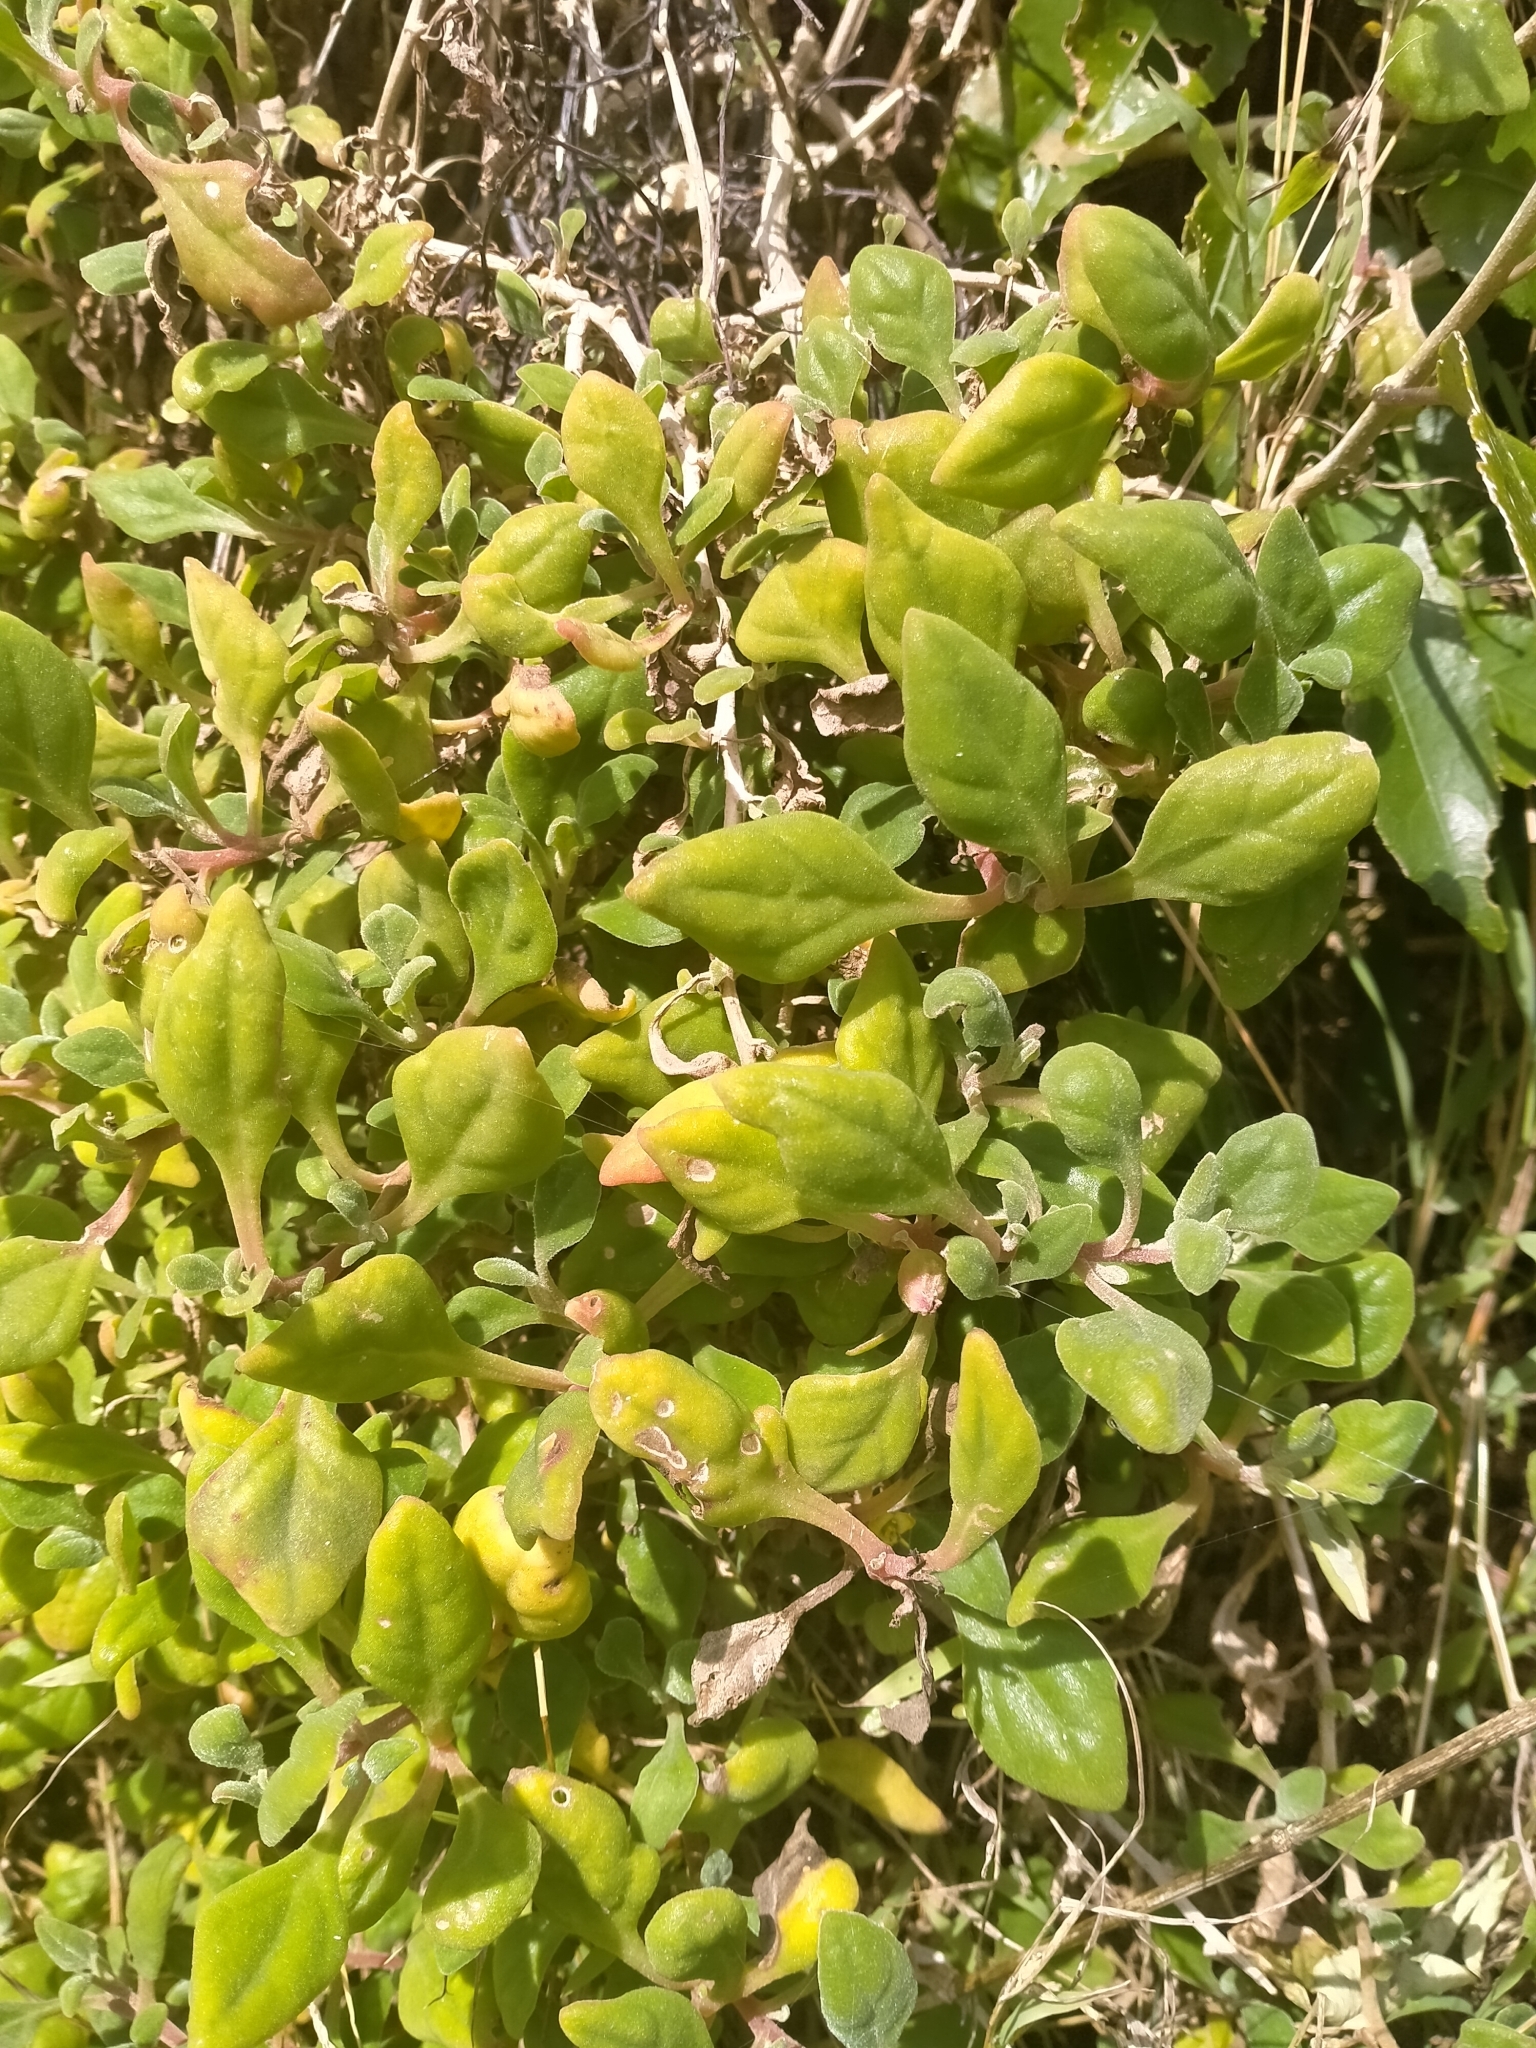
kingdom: Plantae
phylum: Tracheophyta
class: Magnoliopsida
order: Caryophyllales
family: Aizoaceae
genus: Tetragonia
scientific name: Tetragonia implexicoma
